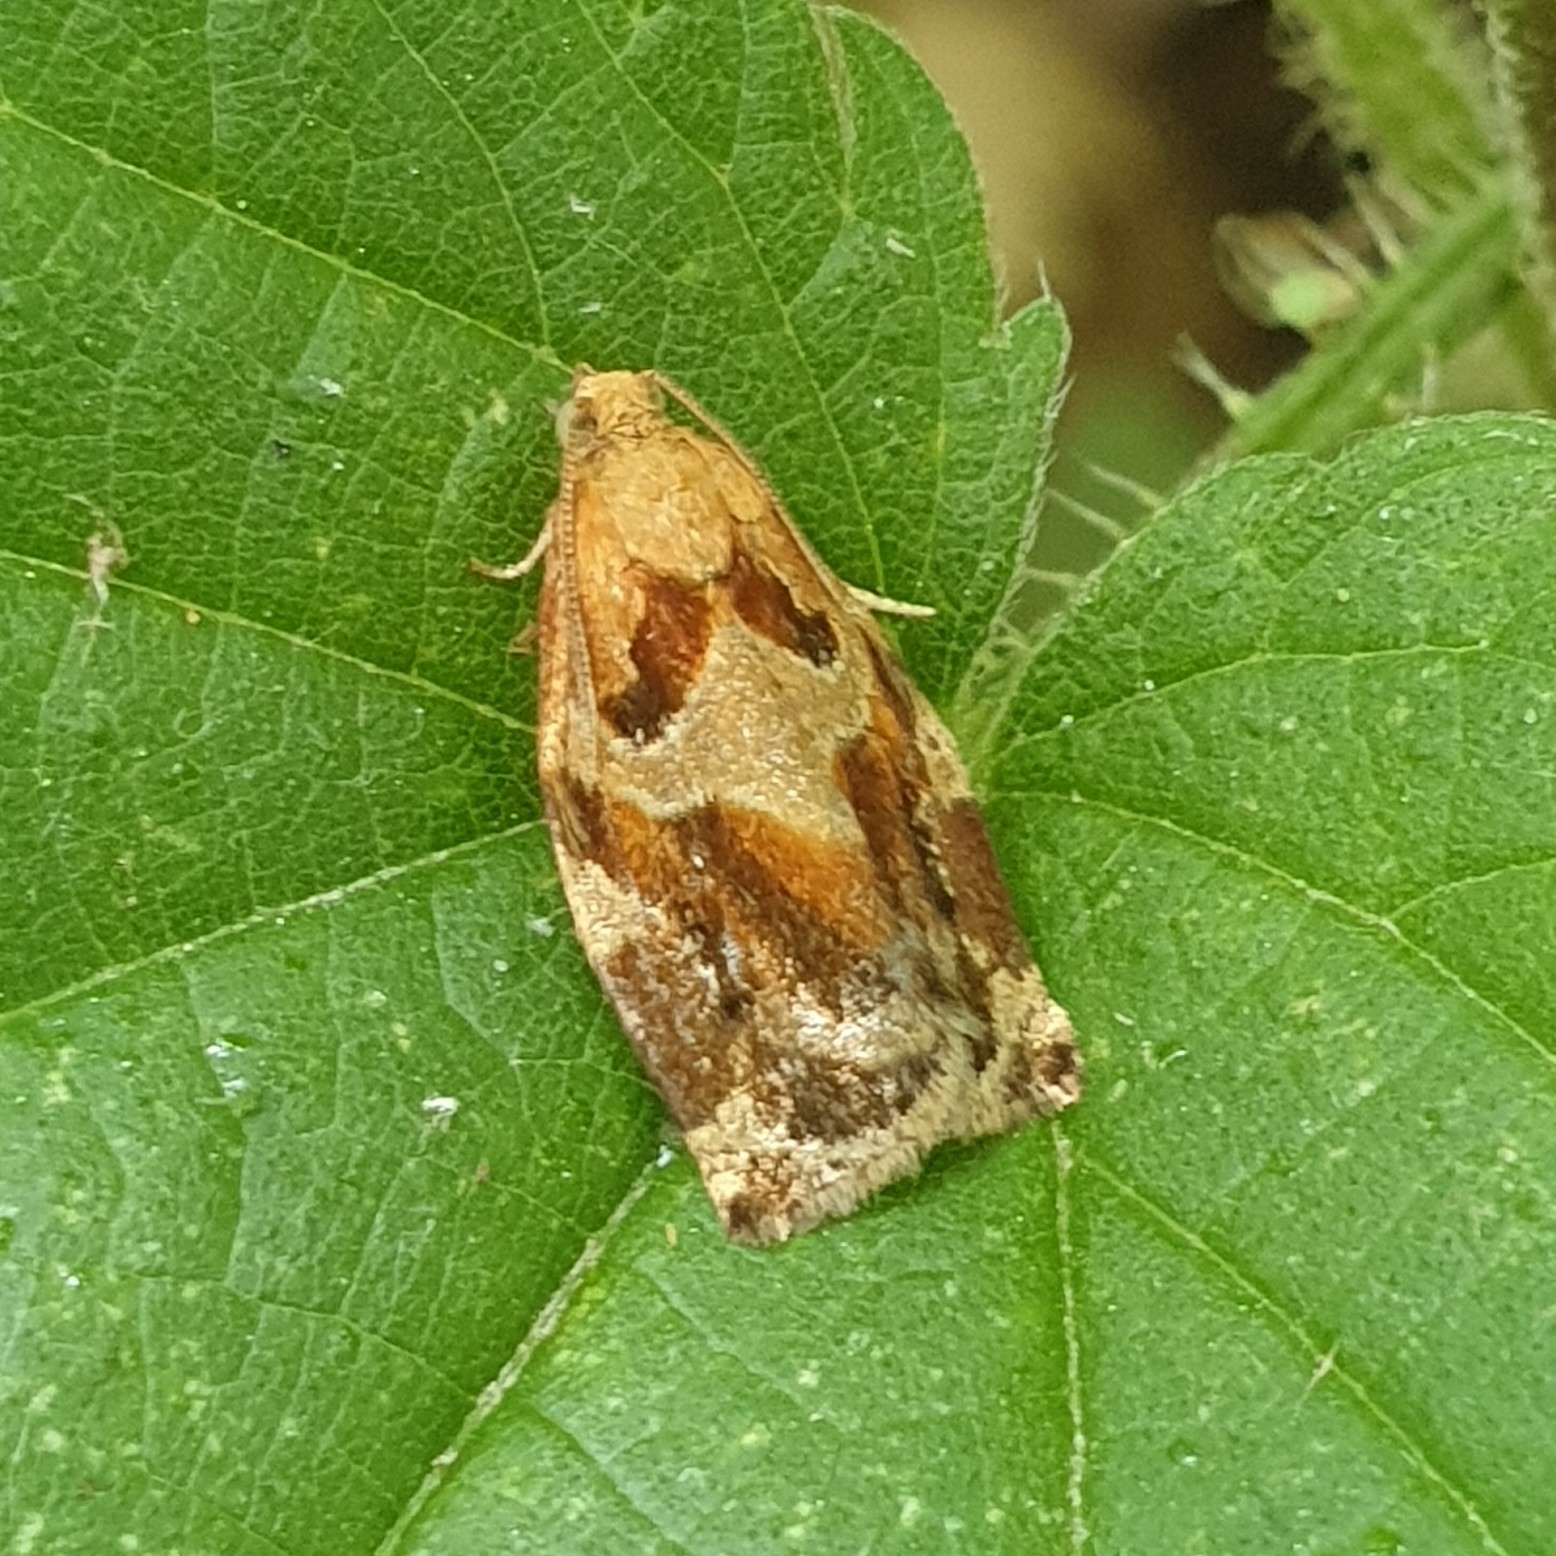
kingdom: Animalia
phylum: Arthropoda
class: Insecta
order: Lepidoptera
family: Tortricidae
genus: Archips
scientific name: Archips xylosteana
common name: Variegated golden tortrix
